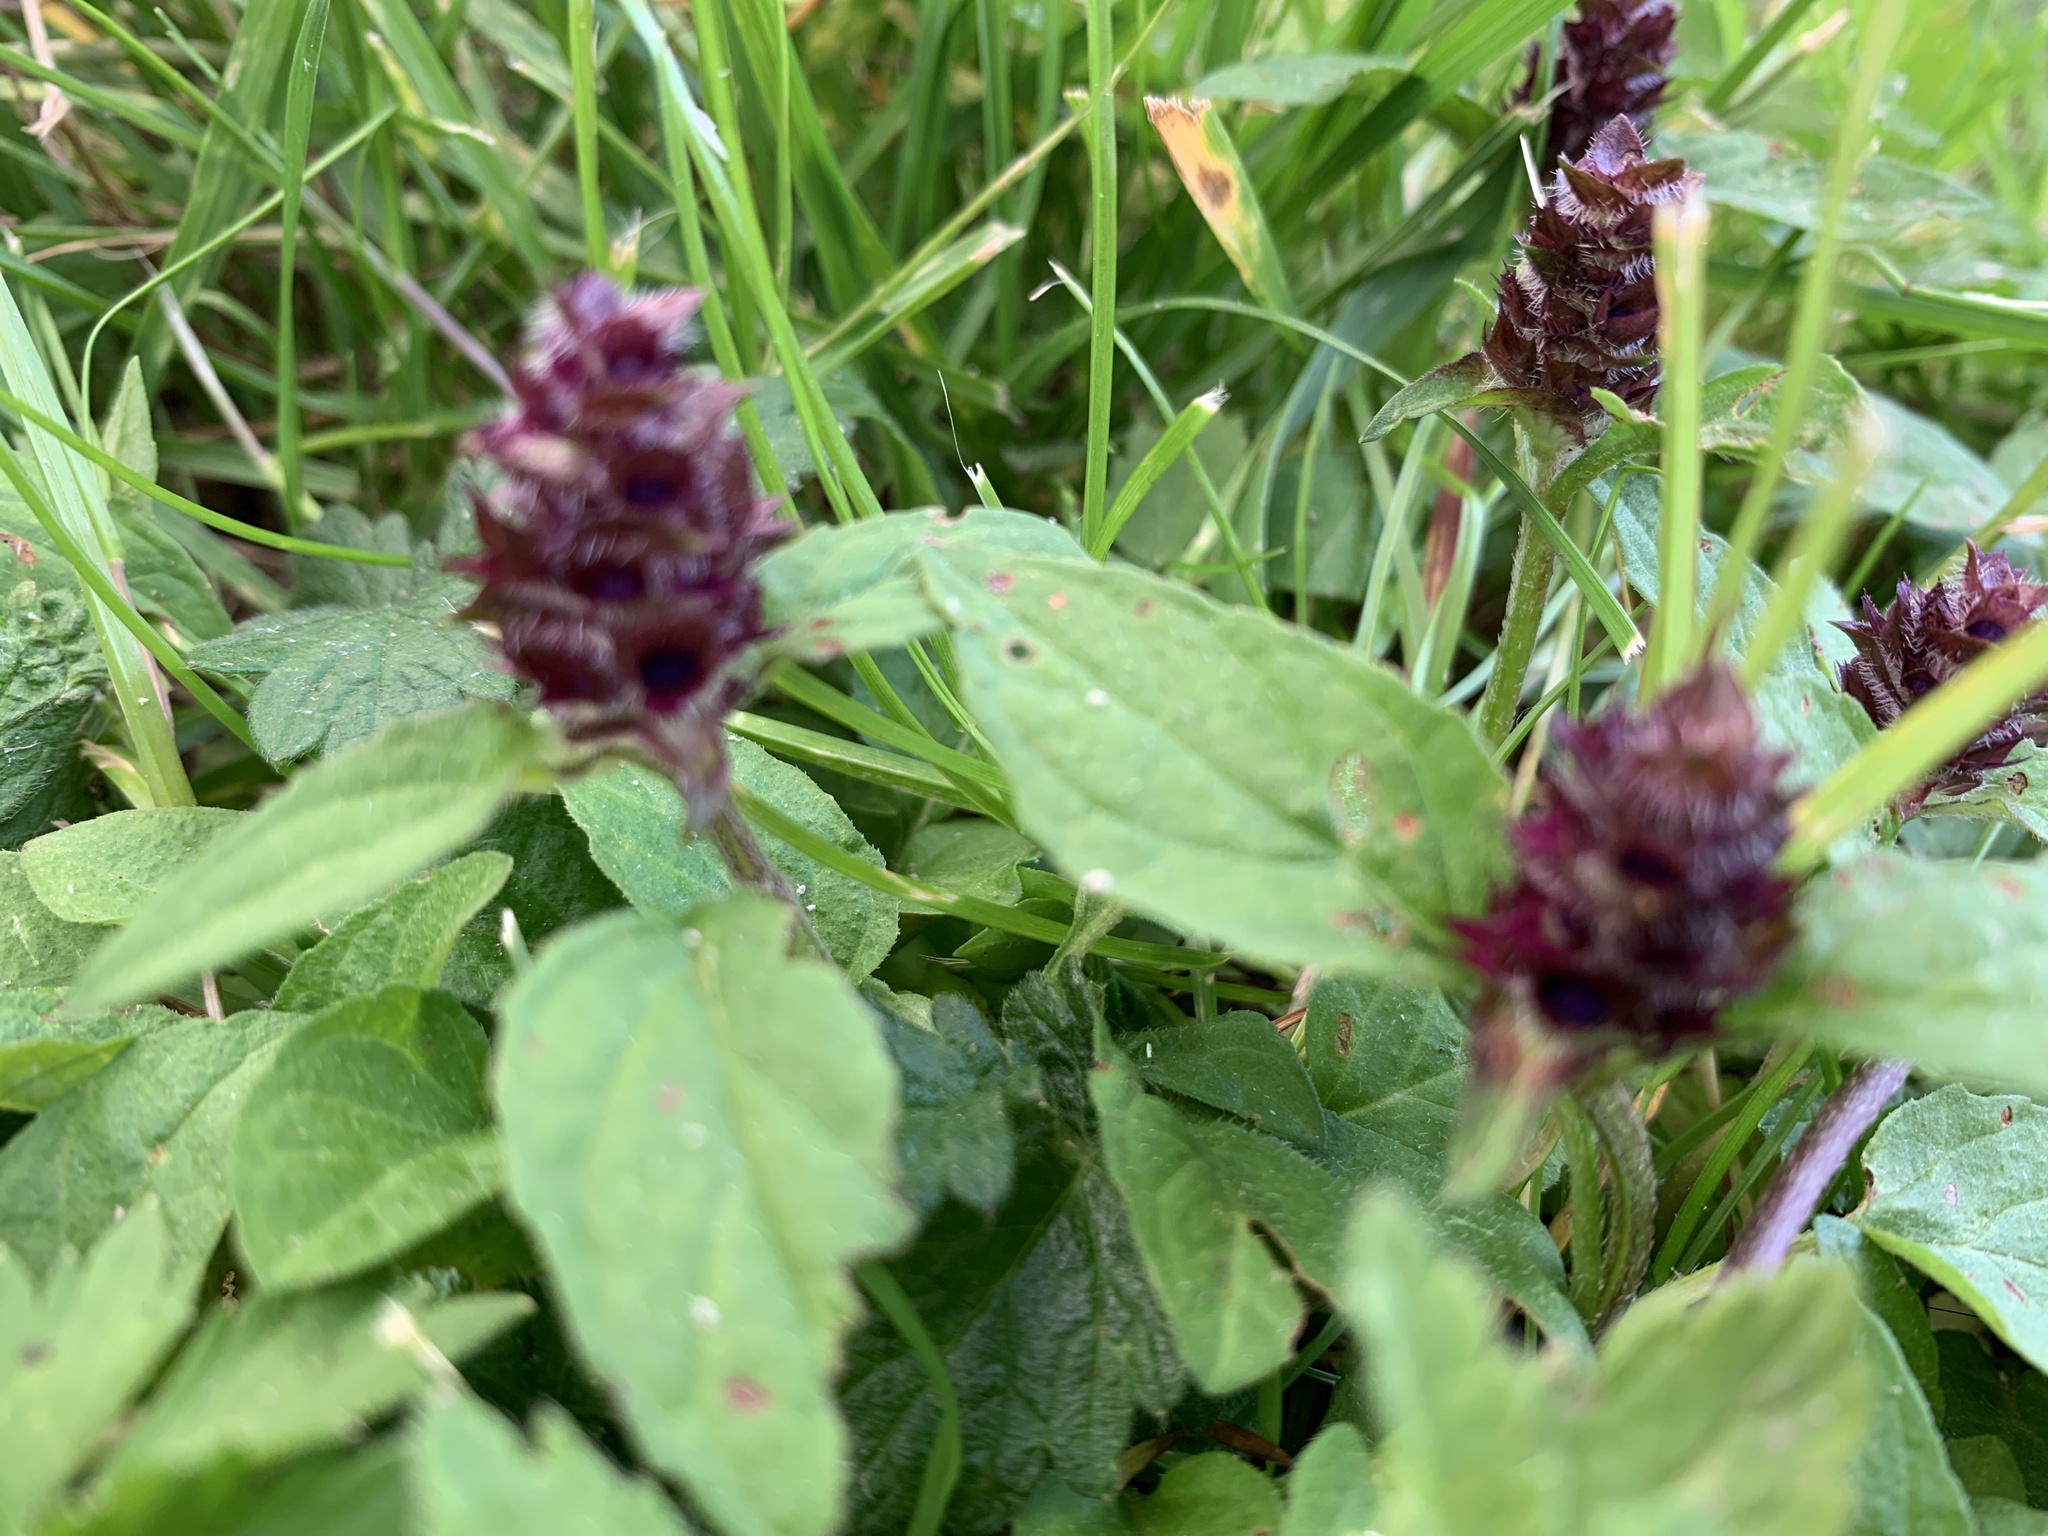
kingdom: Plantae
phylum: Tracheophyta
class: Magnoliopsida
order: Lamiales
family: Lamiaceae
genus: Prunella
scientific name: Prunella vulgaris
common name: Heal-all
